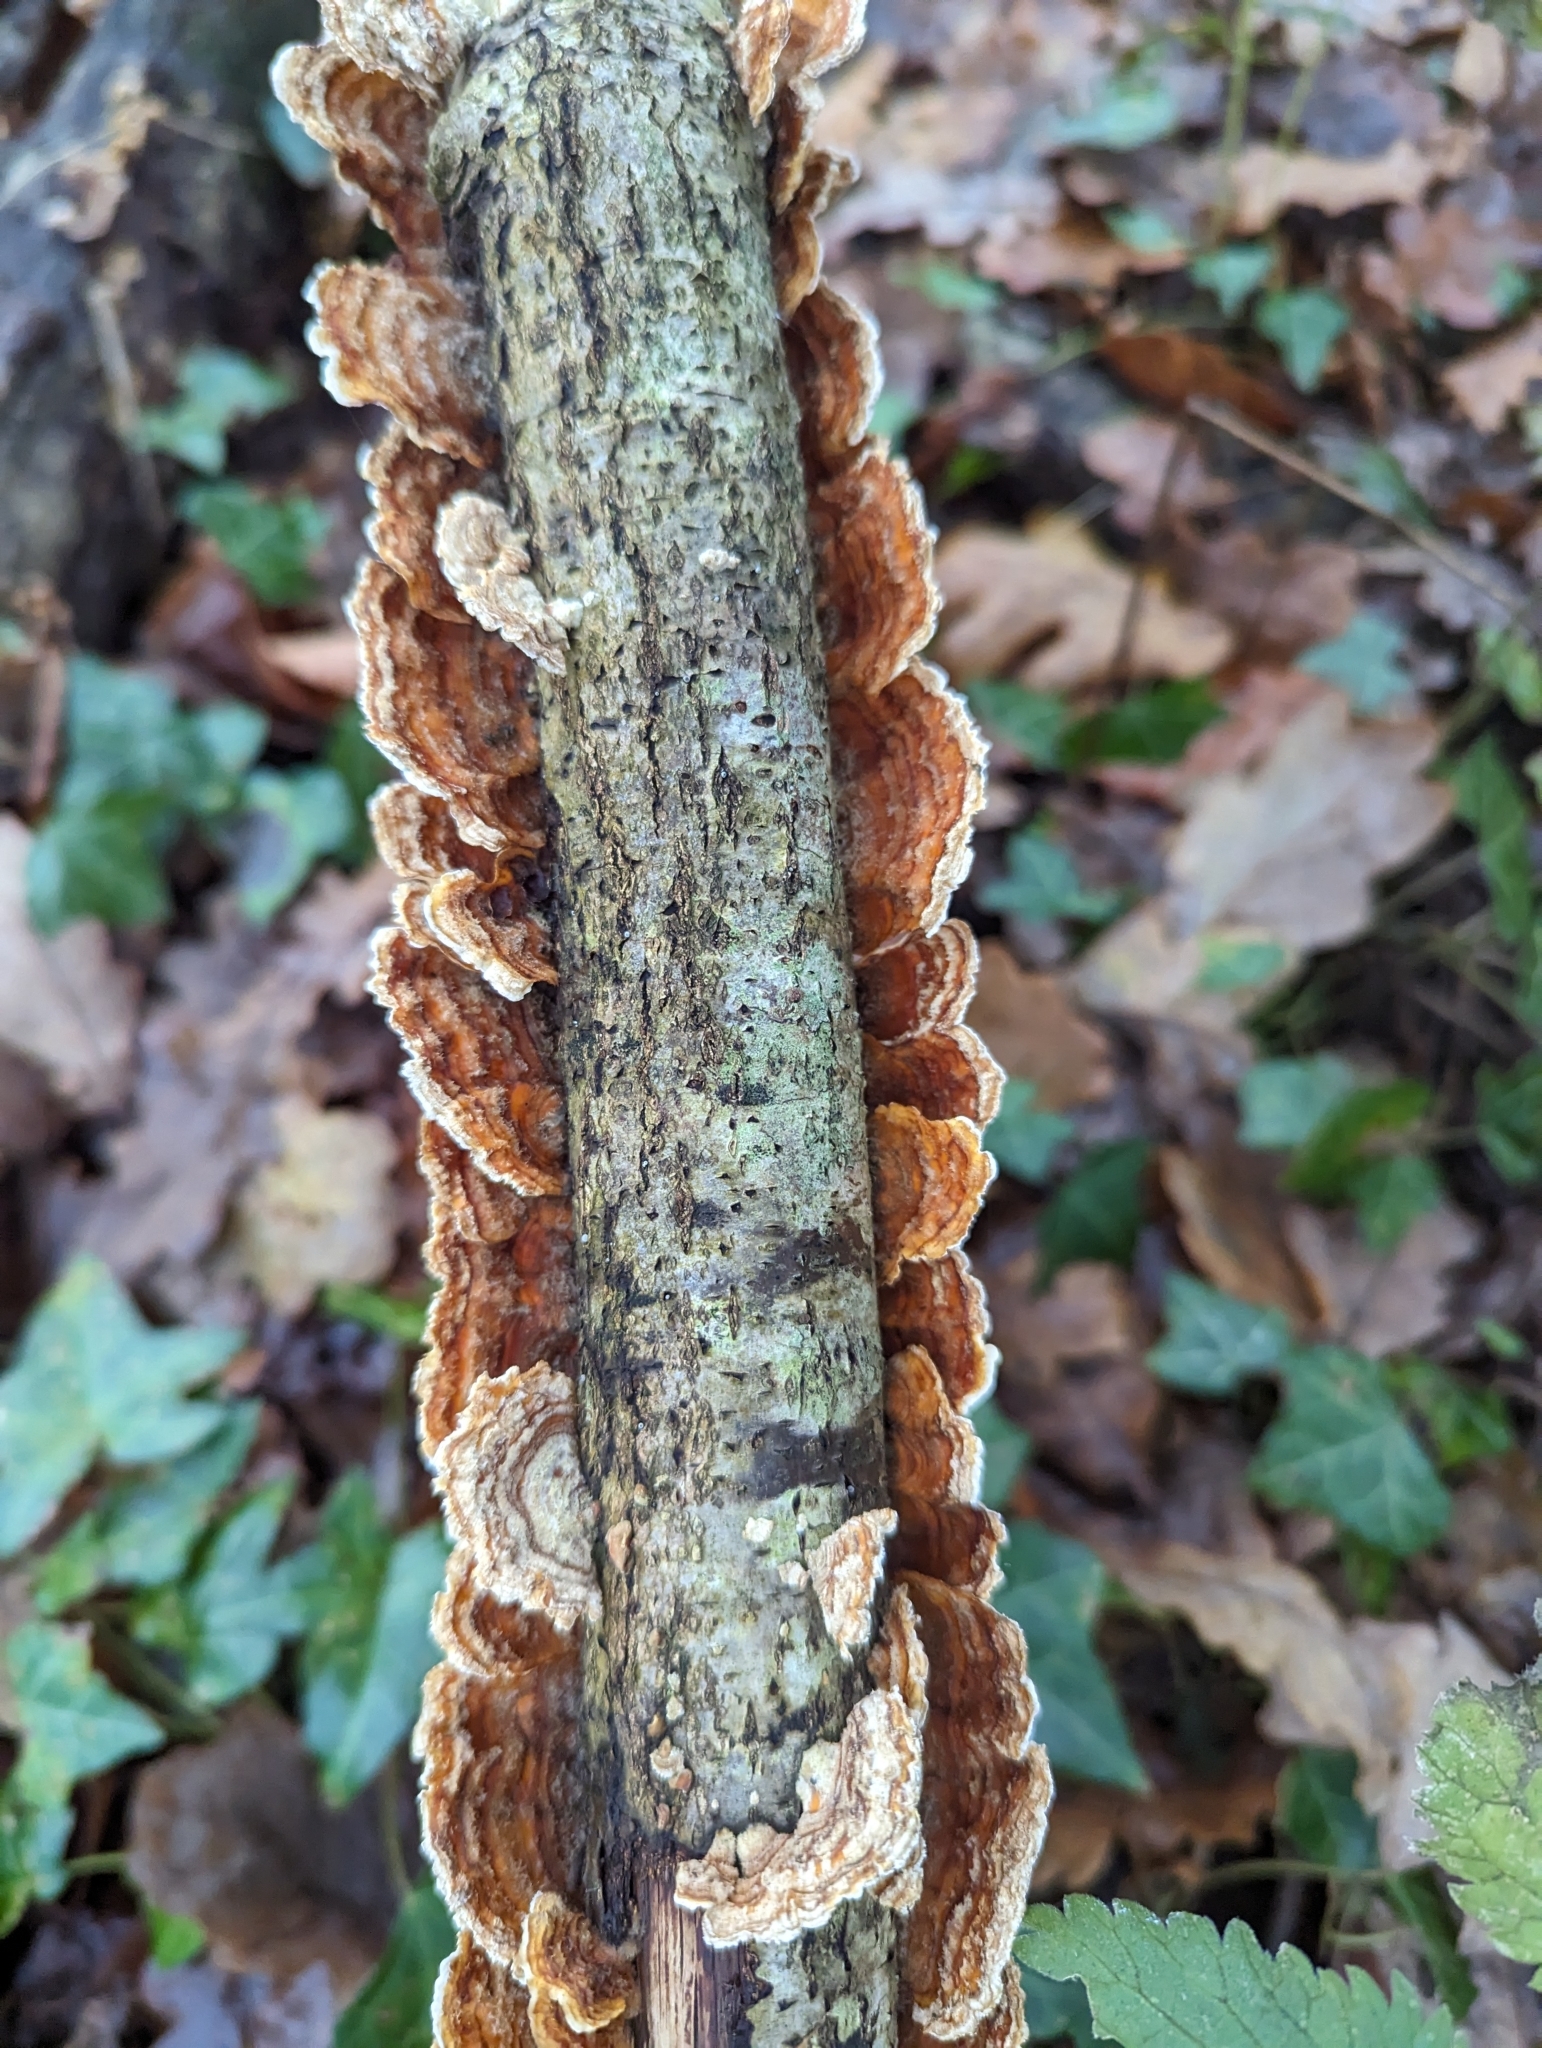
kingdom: Fungi
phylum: Basidiomycota
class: Agaricomycetes
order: Russulales
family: Stereaceae
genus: Stereum
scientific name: Stereum hirsutum
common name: Hairy curtain crust
